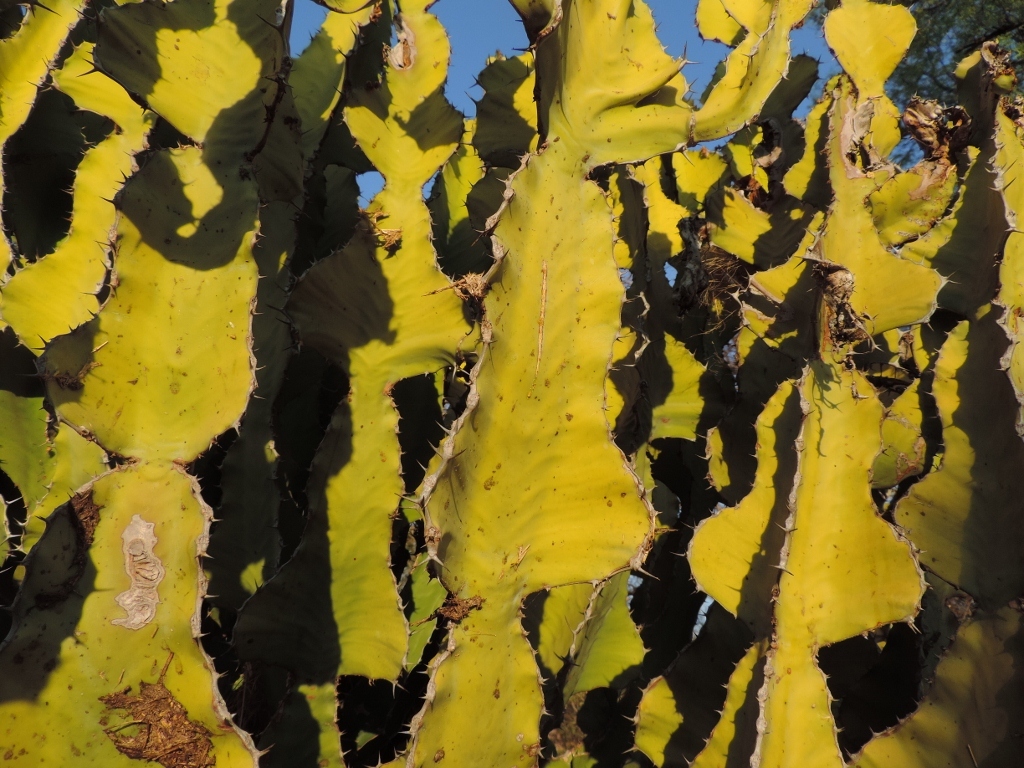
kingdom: Plantae
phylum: Tracheophyta
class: Magnoliopsida
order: Malpighiales
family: Euphorbiaceae
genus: Euphorbia
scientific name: Euphorbia cooperi
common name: Candelabra tree
